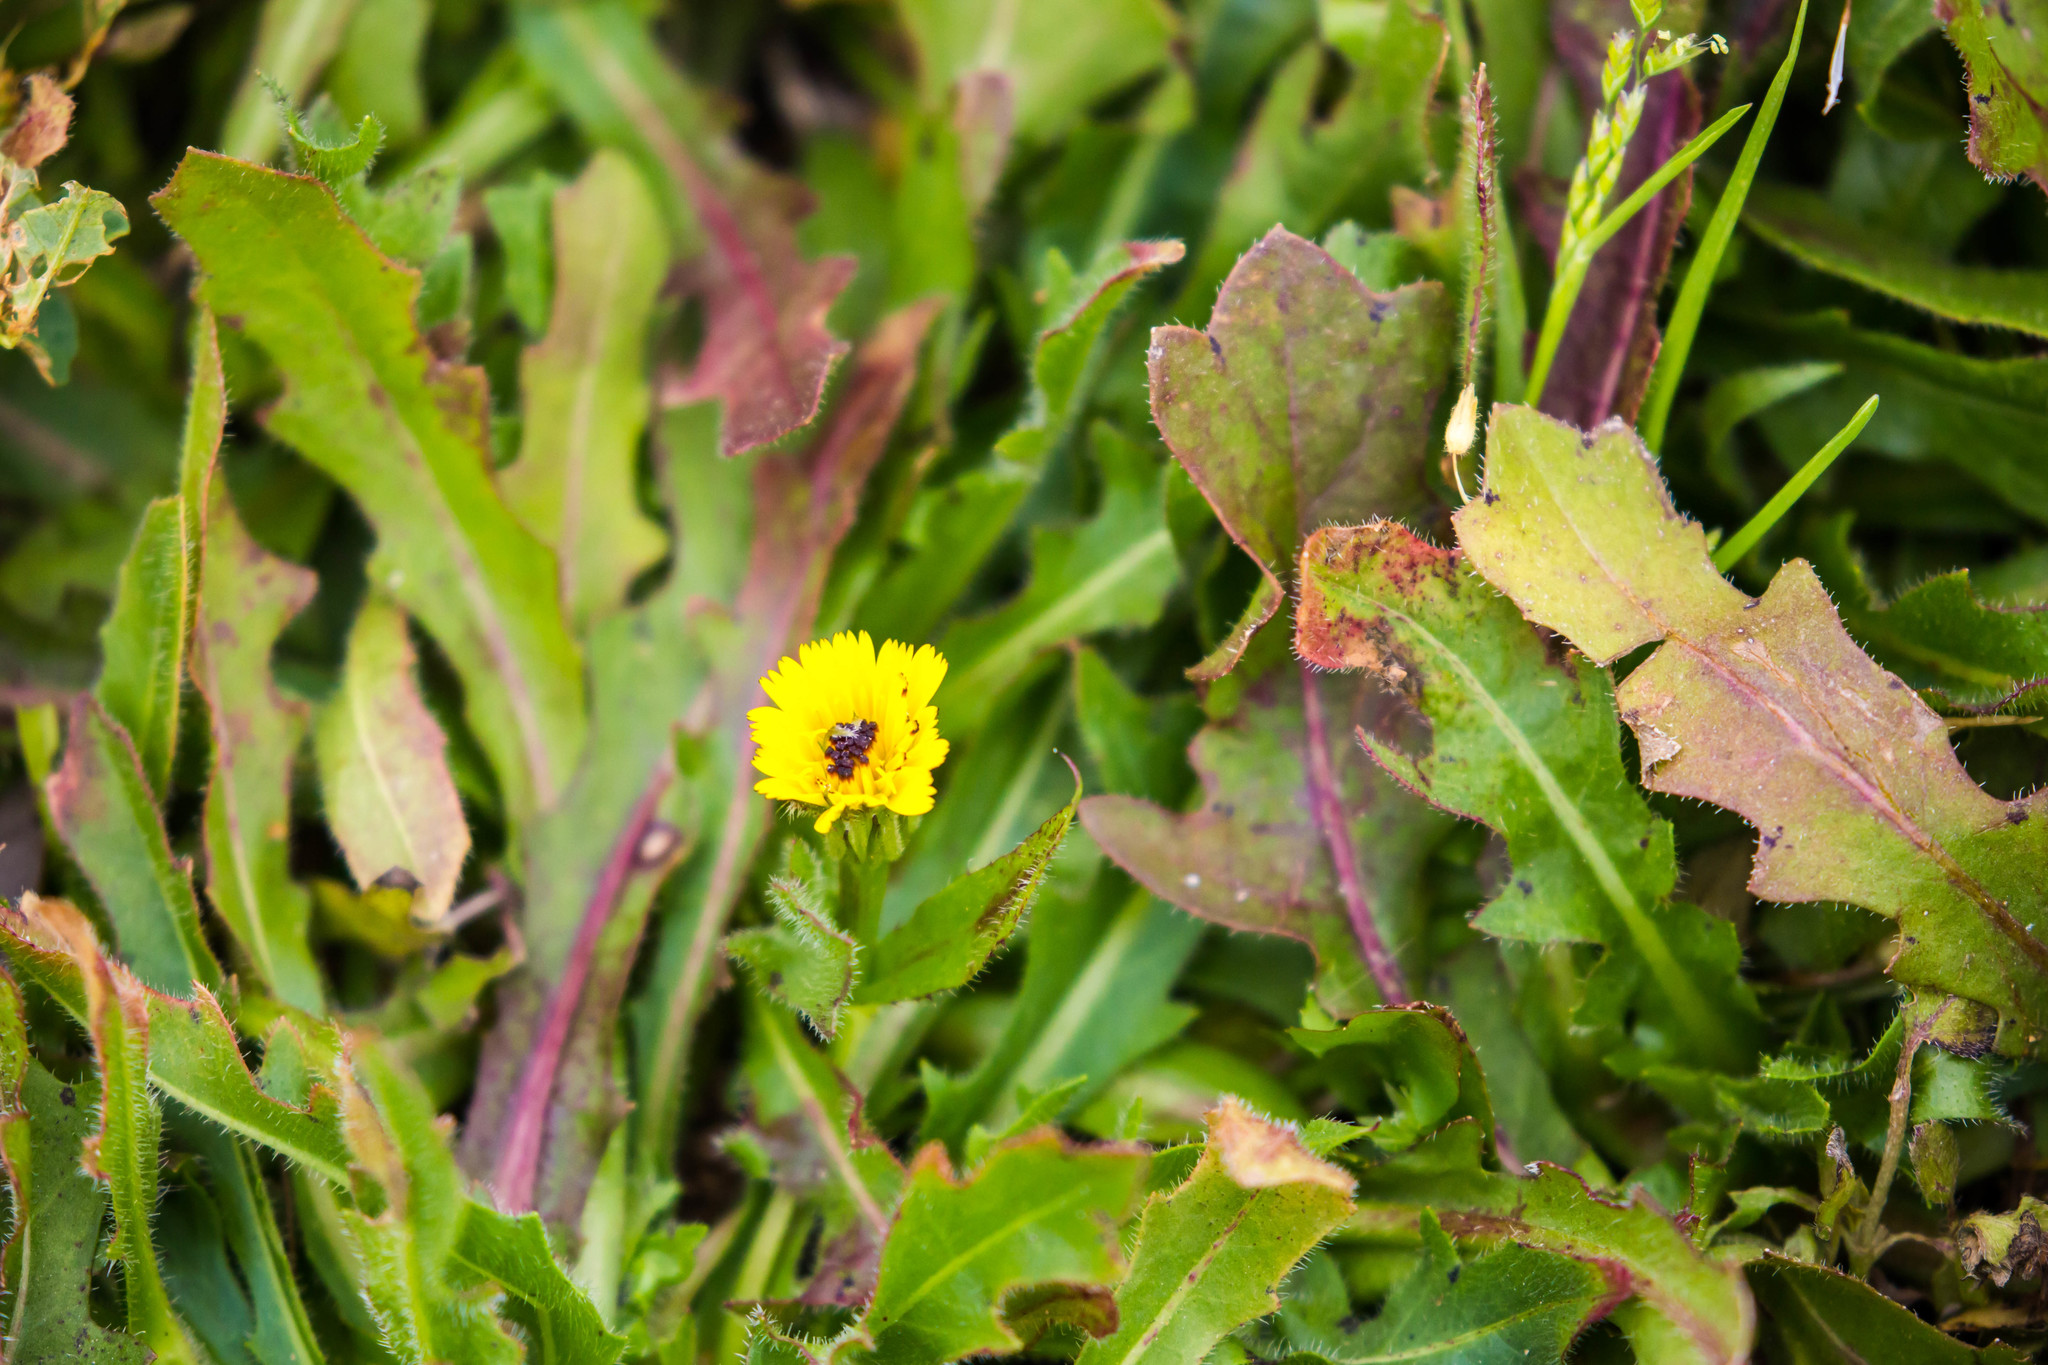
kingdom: Plantae
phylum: Tracheophyta
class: Magnoliopsida
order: Asterales
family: Asteraceae
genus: Hedypnois
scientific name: Hedypnois rhagadioloides
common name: Cretan weed
